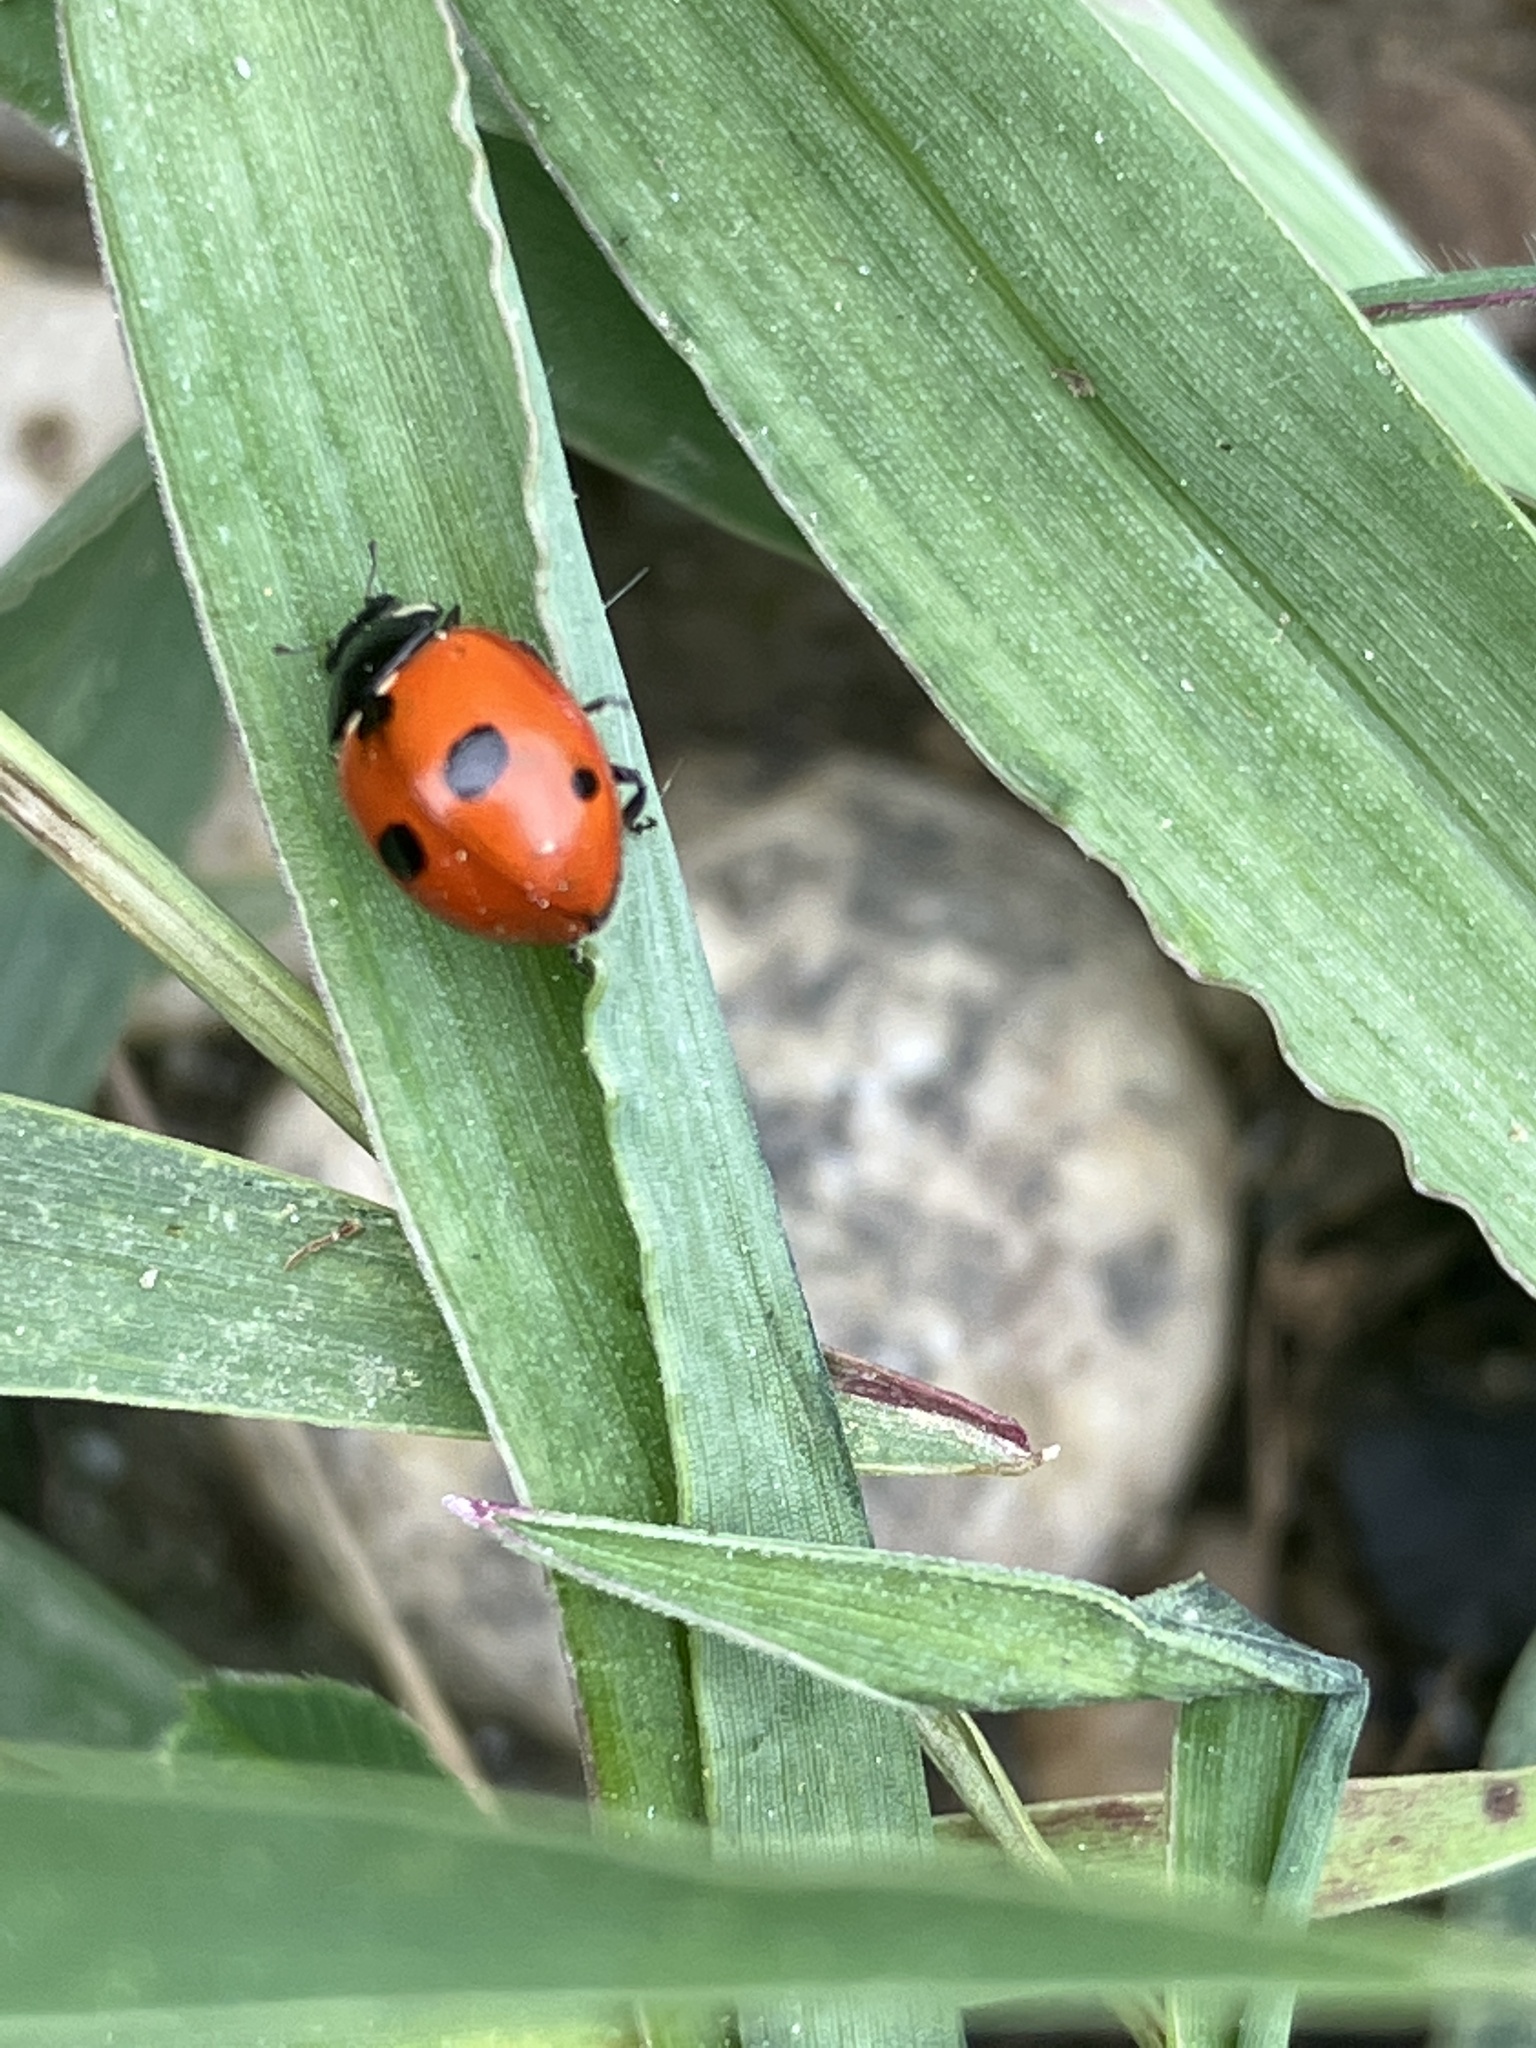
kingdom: Animalia
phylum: Arthropoda
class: Insecta
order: Coleoptera
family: Coccinellidae
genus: Coccinella
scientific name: Coccinella quinquepunctata
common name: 5-spot ladybird
